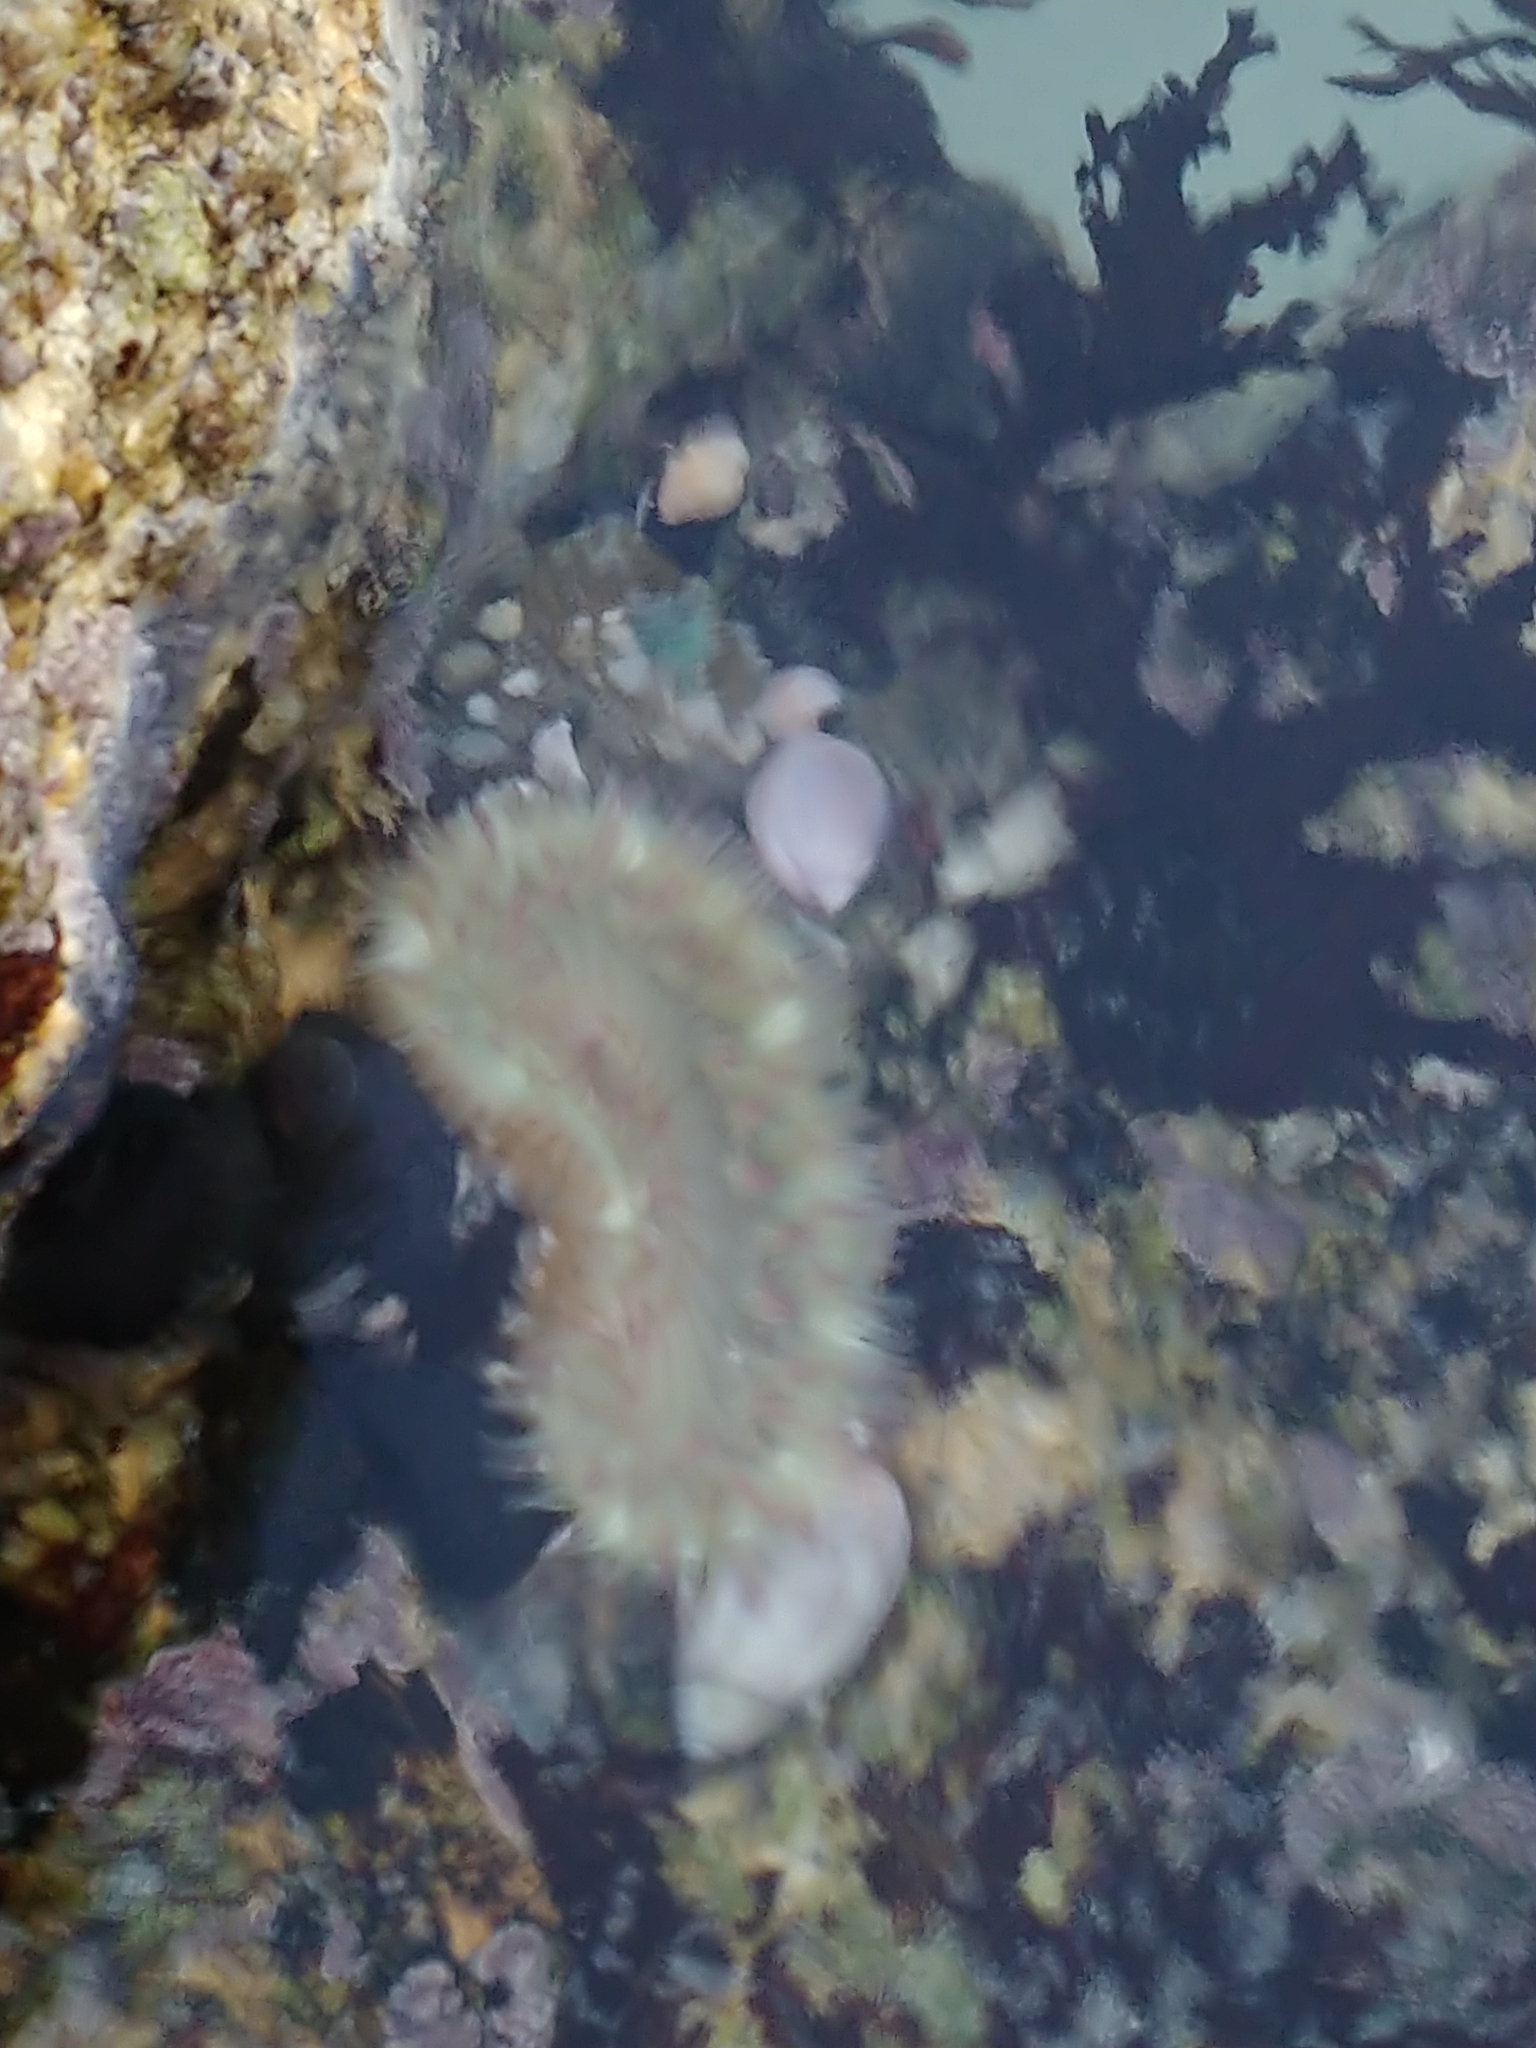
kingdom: Animalia
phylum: Cnidaria
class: Anthozoa
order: Actiniaria
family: Actiniidae
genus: Anthopleura
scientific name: Anthopleura elegantissima
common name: Clonal anemone
